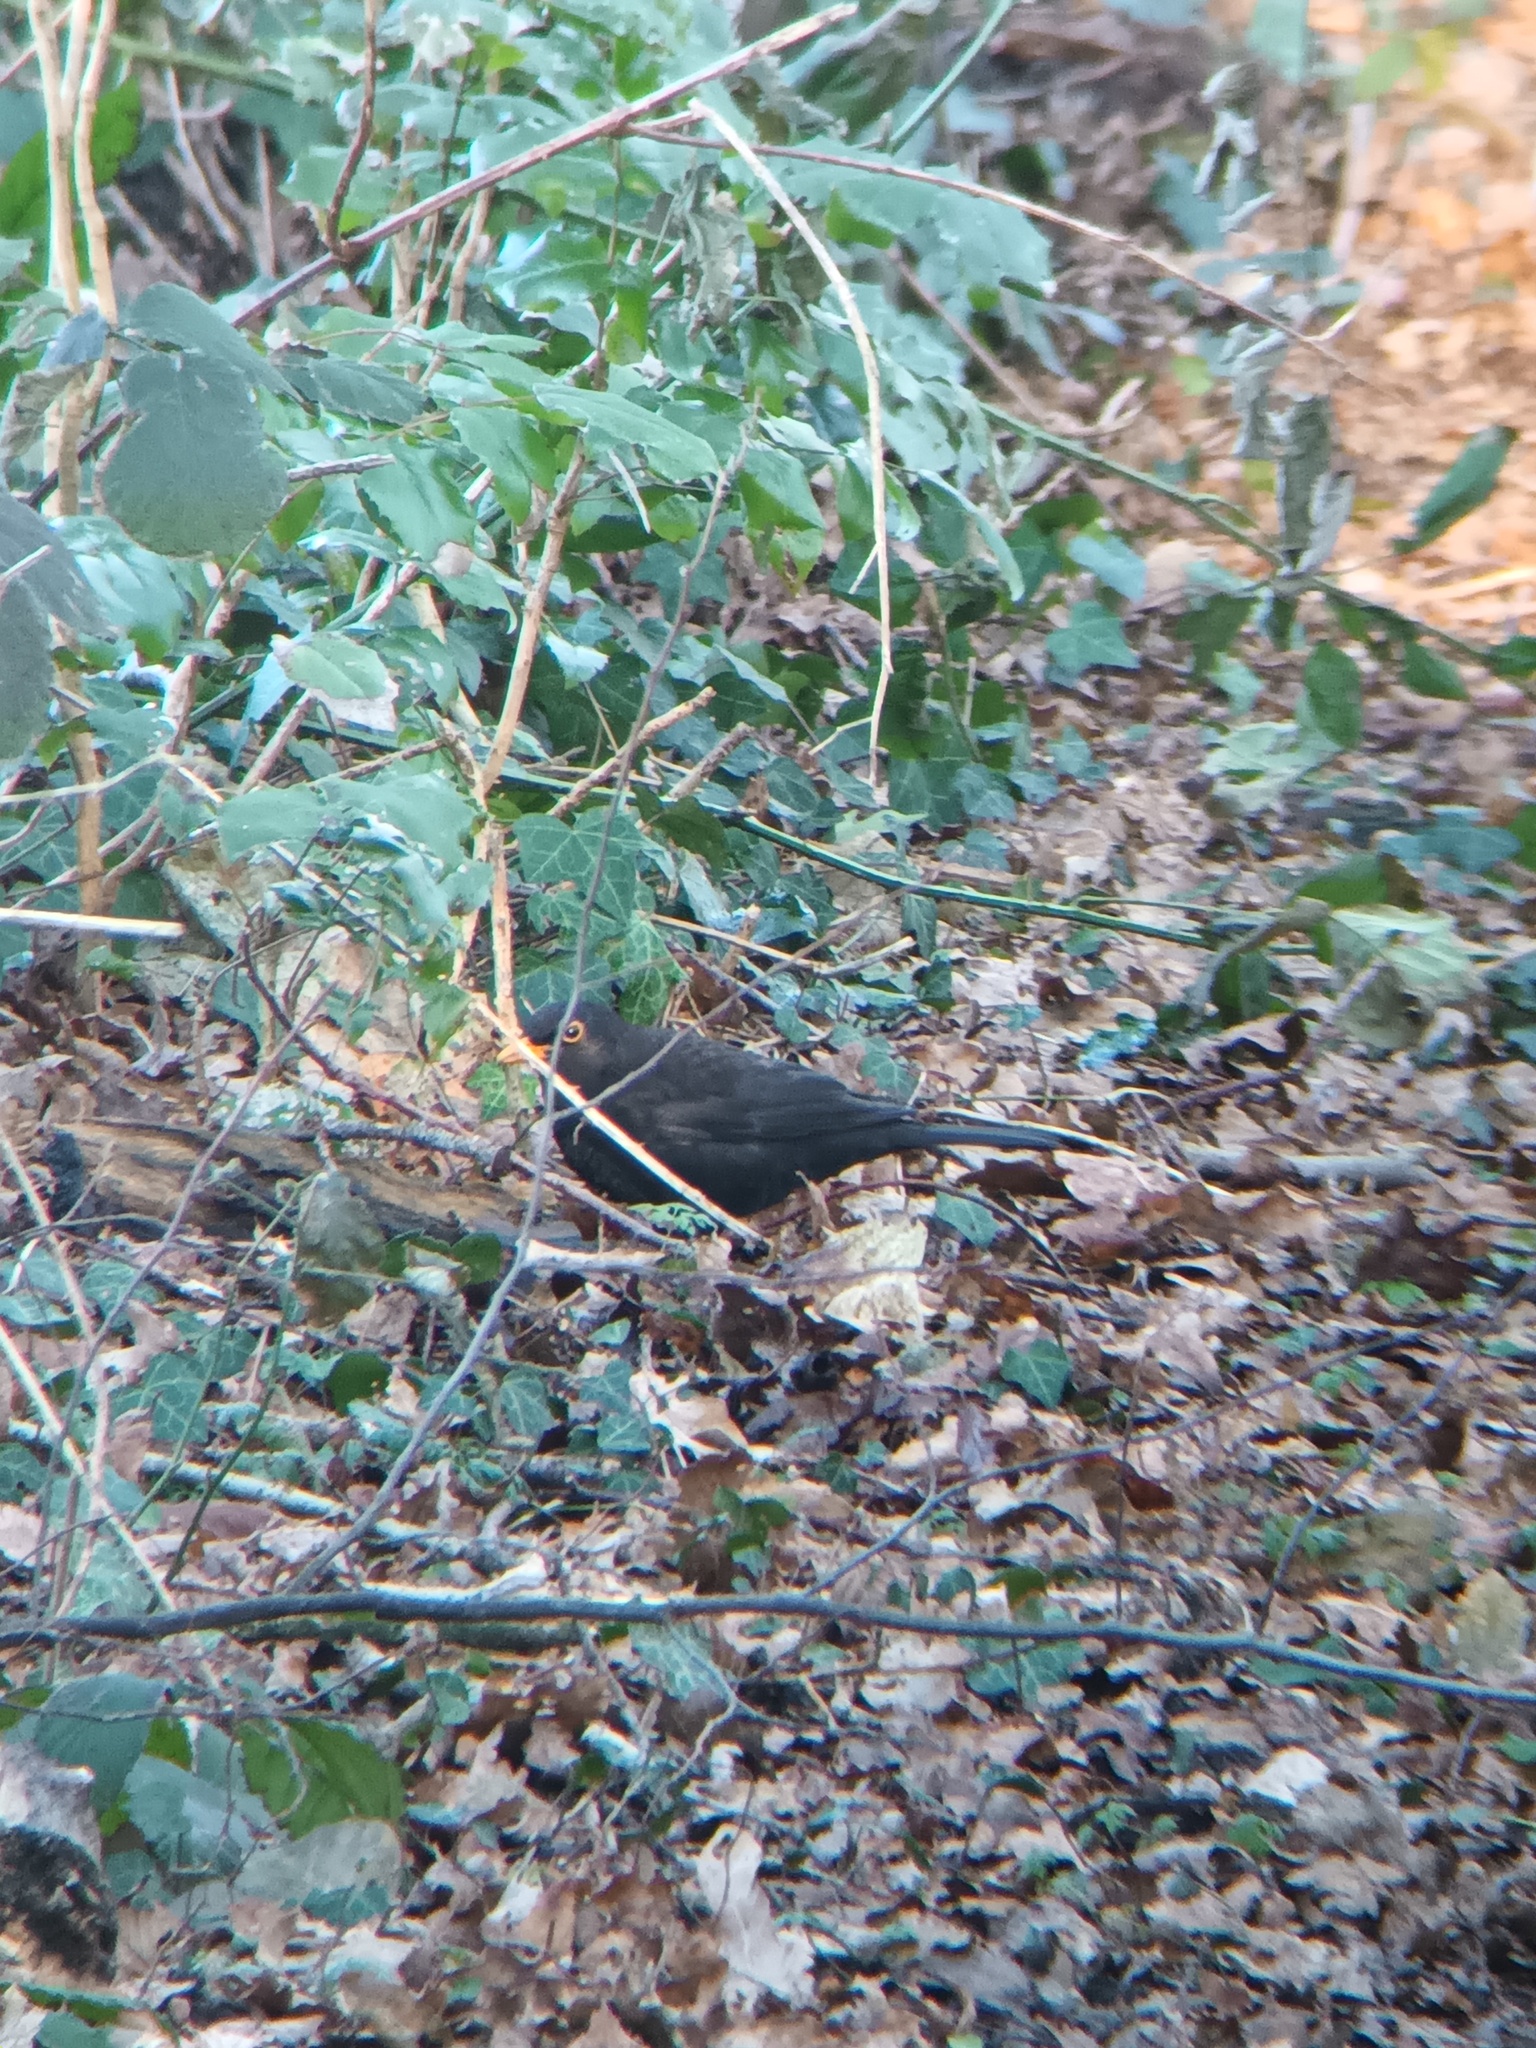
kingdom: Animalia
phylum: Chordata
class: Aves
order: Passeriformes
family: Turdidae
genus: Turdus
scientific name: Turdus merula
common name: Common blackbird
